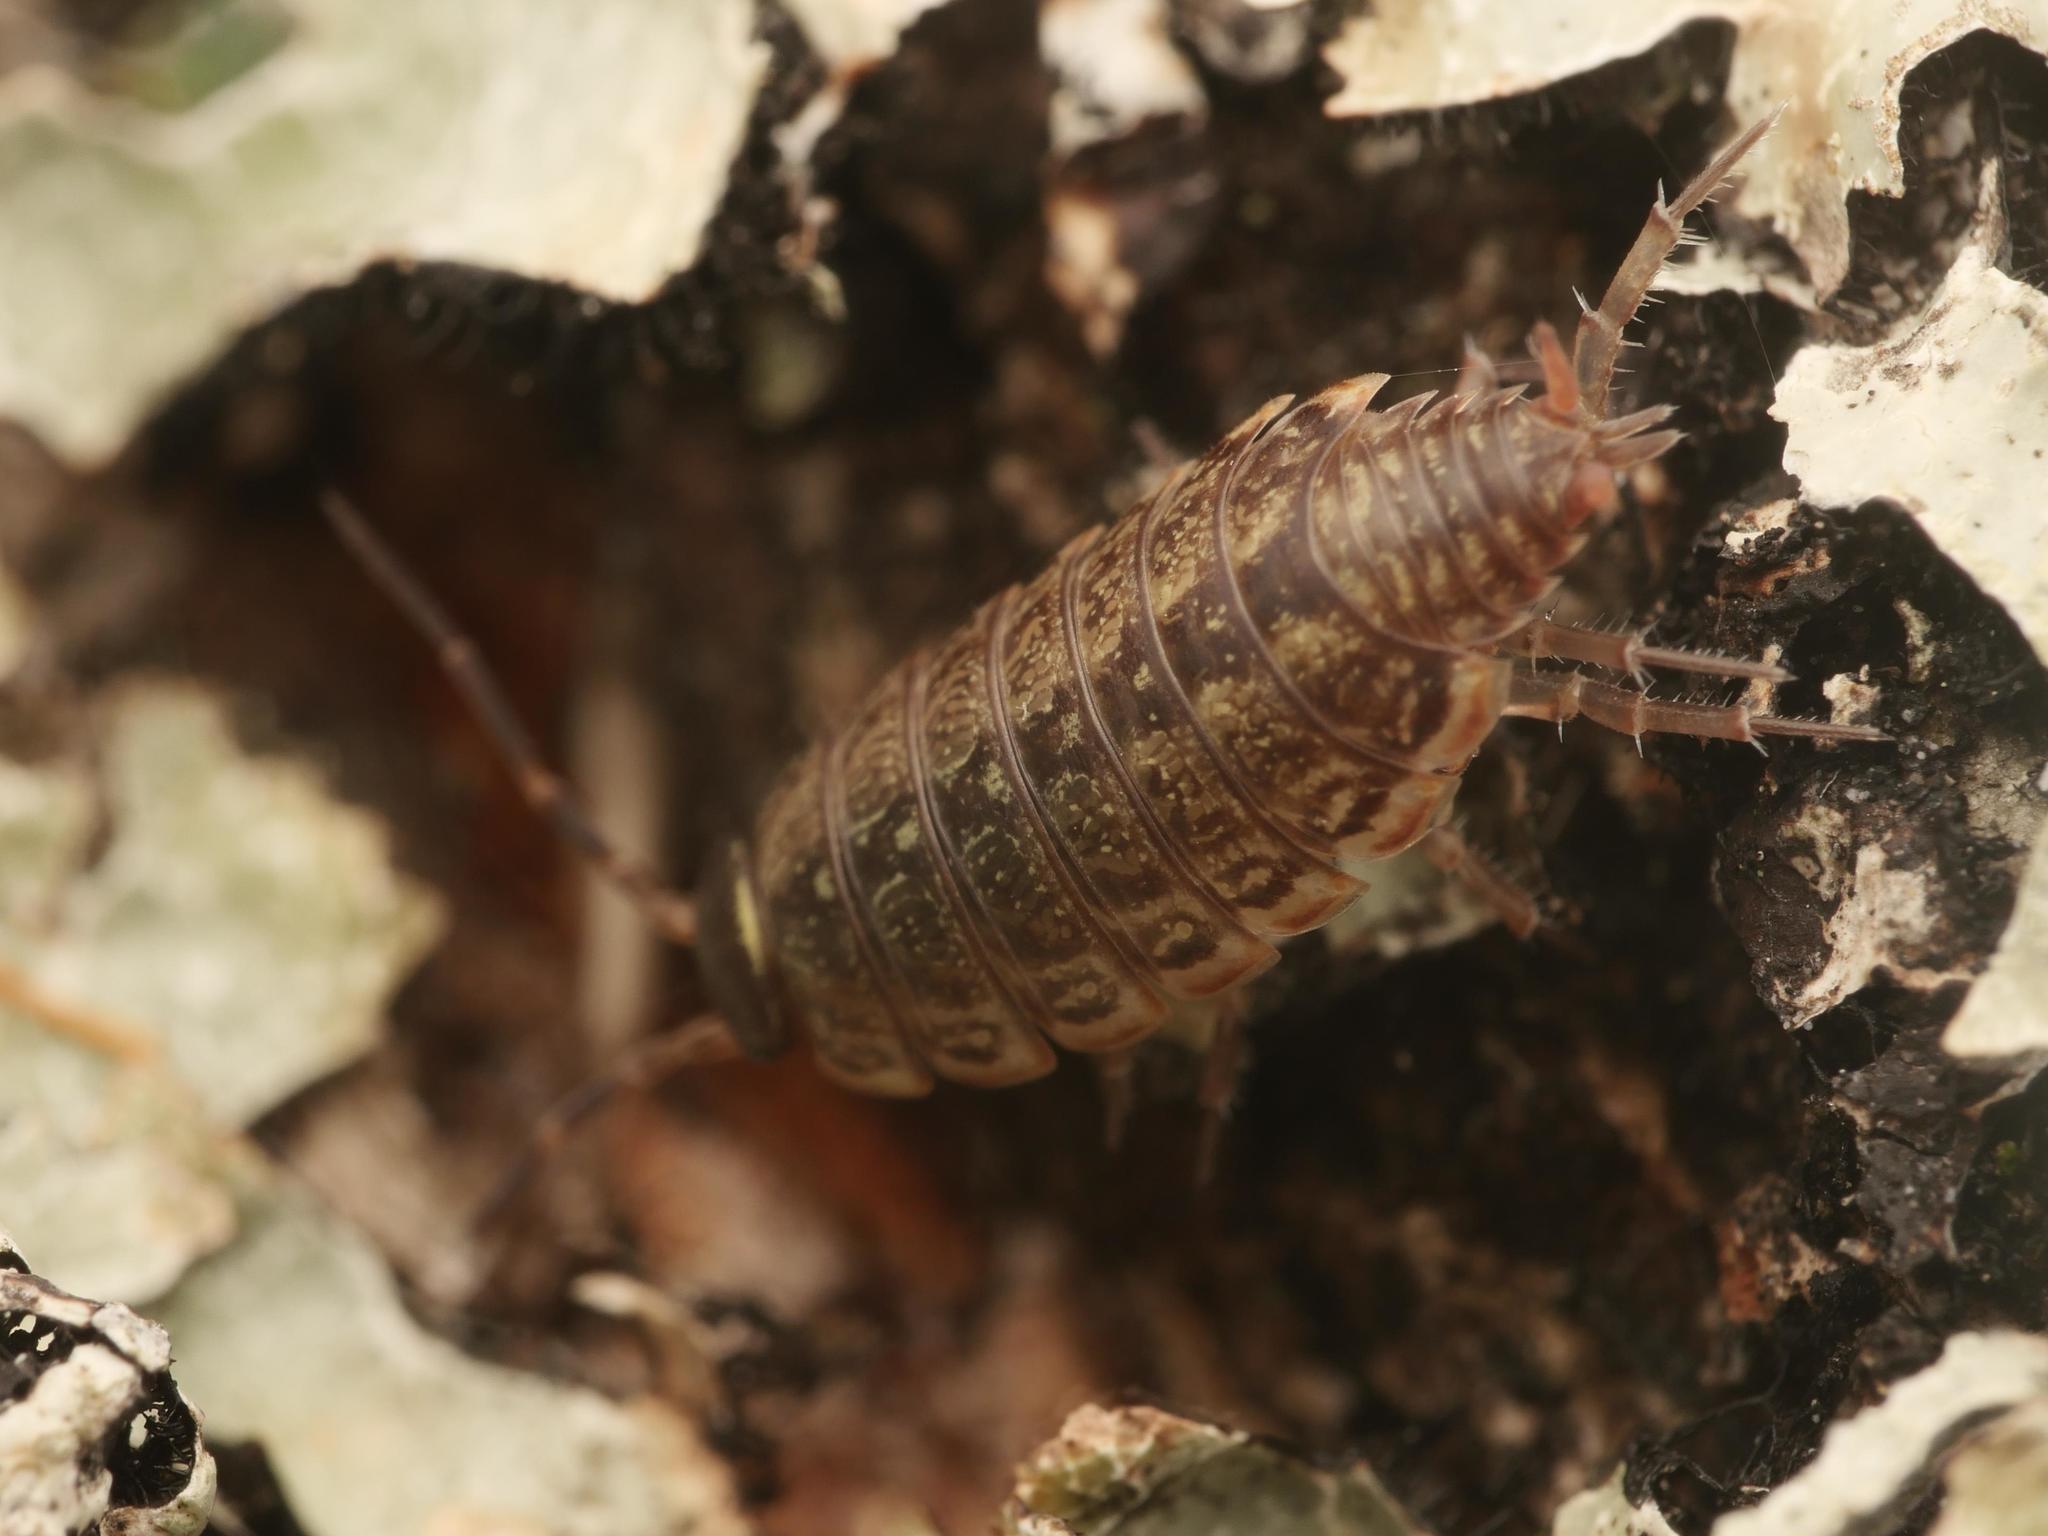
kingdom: Animalia
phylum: Arthropoda
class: Malacostraca
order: Isopoda
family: Philosciidae
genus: Philoscia
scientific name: Philoscia muscorum
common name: Common striped woodlouse
